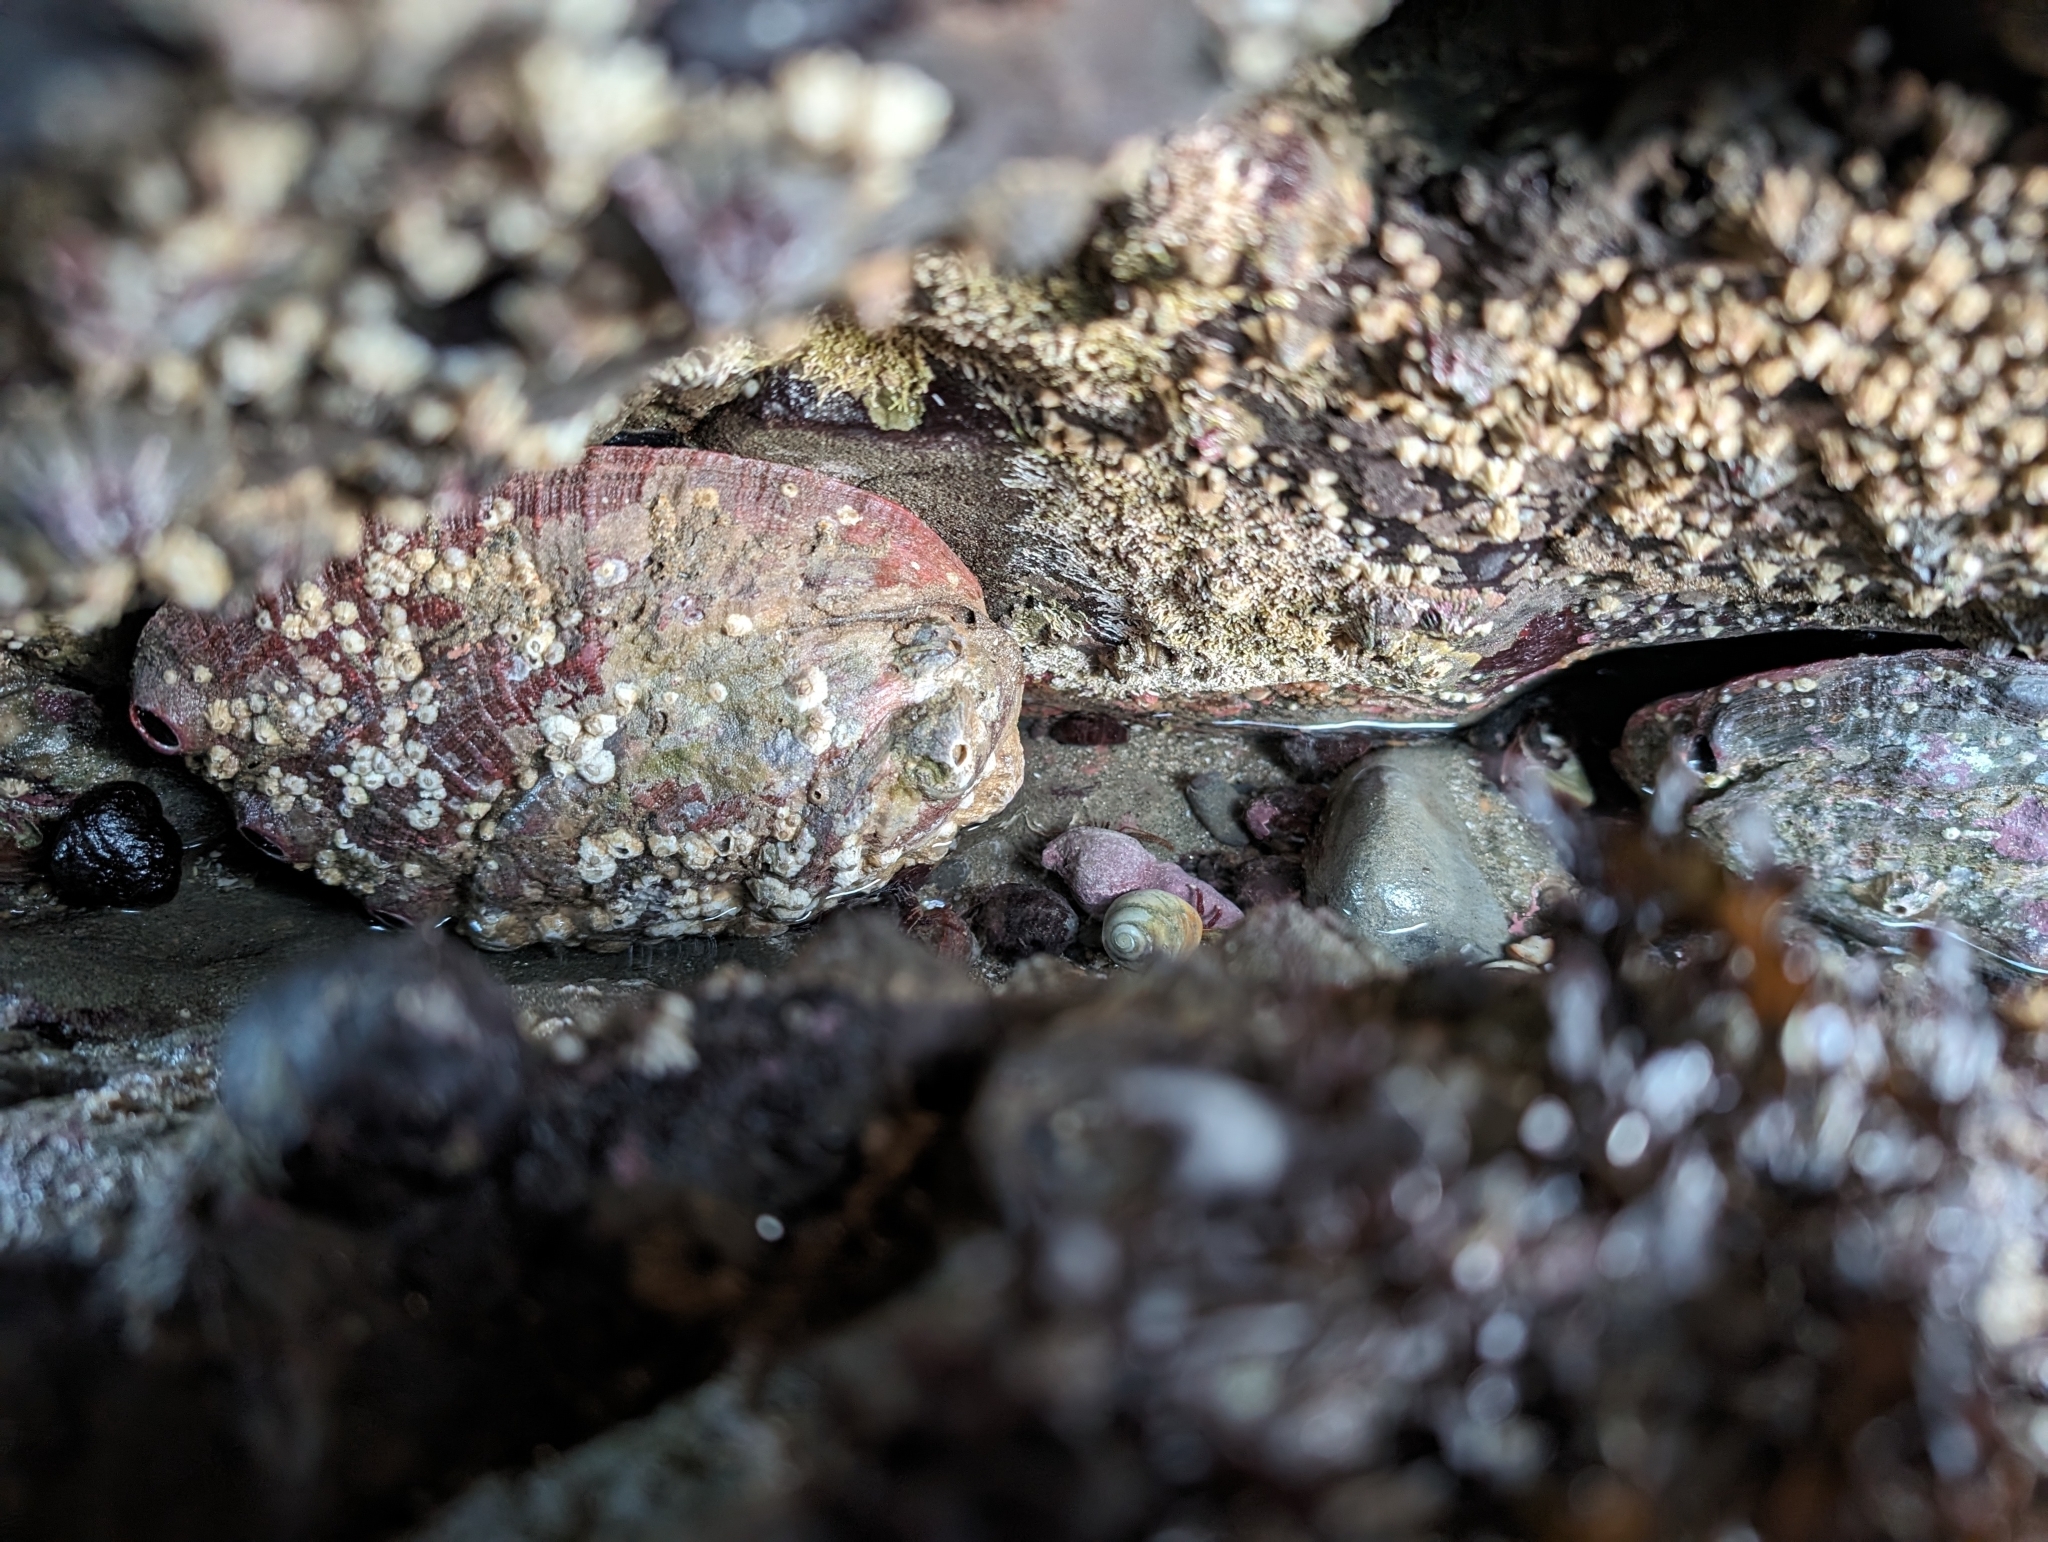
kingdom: Animalia
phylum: Mollusca
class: Gastropoda
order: Lepetellida
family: Haliotidae
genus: Haliotis
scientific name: Haliotis rufescens
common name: Red abalone
